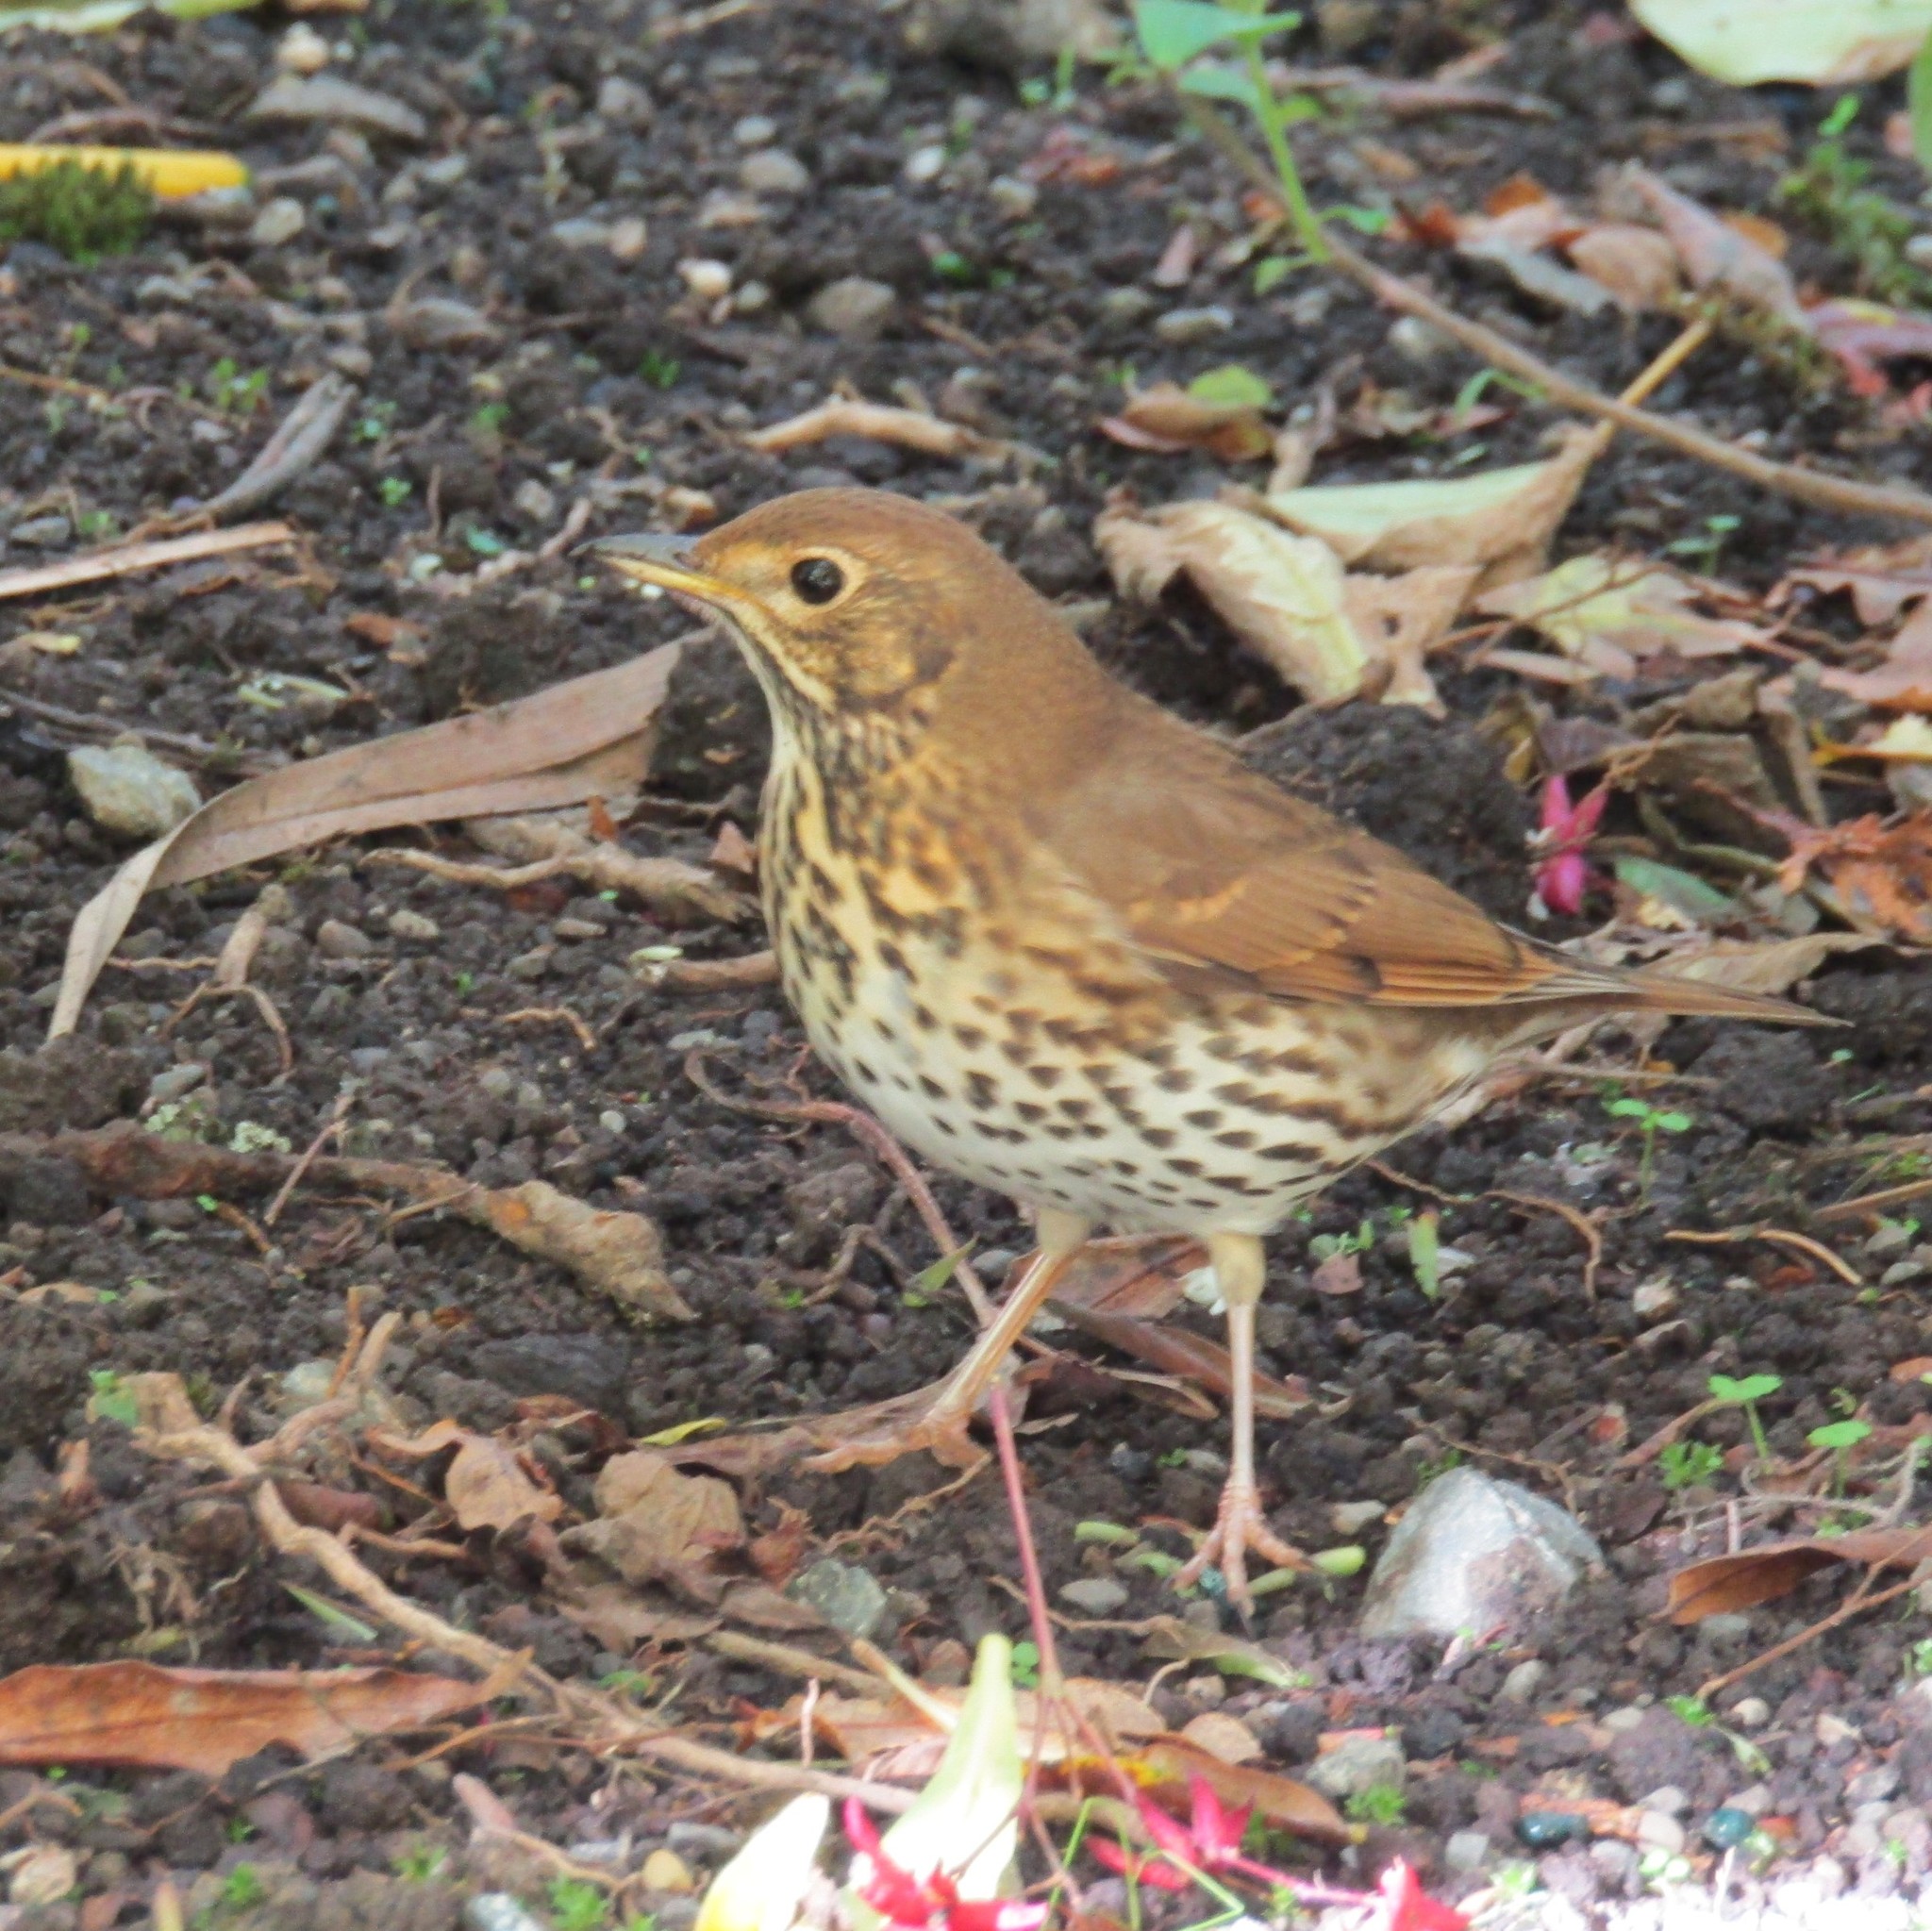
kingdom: Animalia
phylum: Chordata
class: Aves
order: Passeriformes
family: Turdidae
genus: Turdus
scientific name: Turdus philomelos
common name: Song thrush
